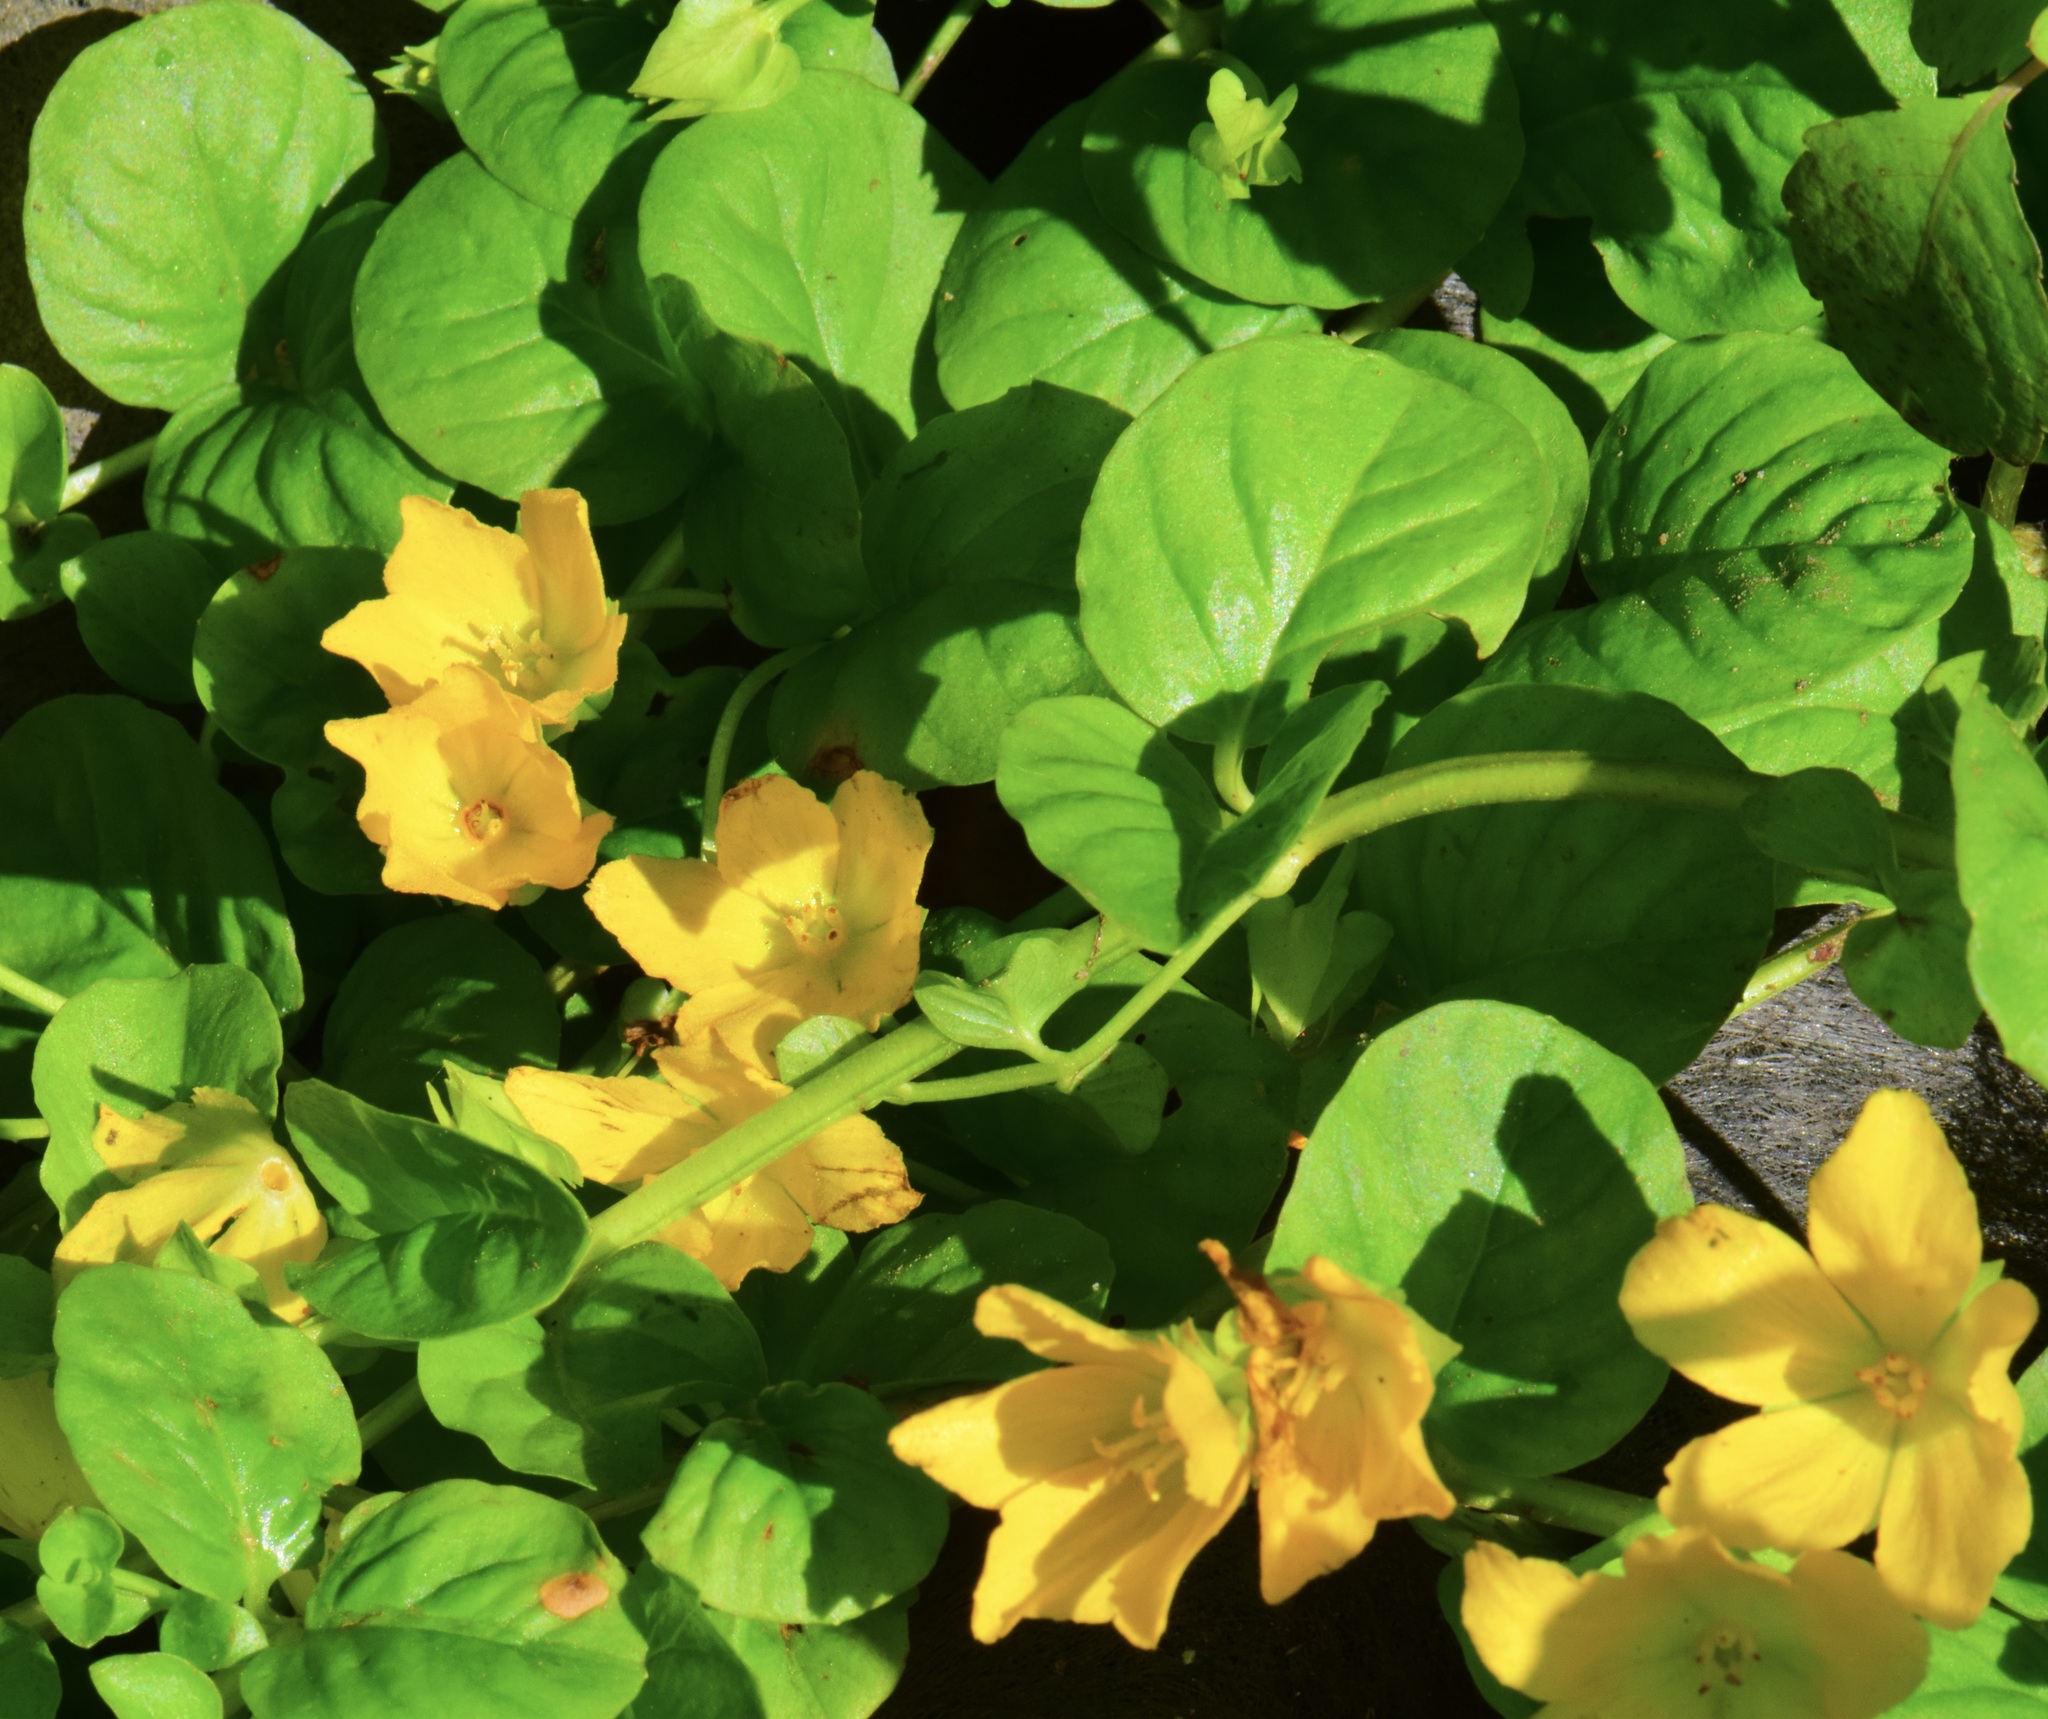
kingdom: Plantae
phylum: Tracheophyta
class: Magnoliopsida
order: Ericales
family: Primulaceae
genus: Lysimachia
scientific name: Lysimachia nummularia
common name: Moneywort
